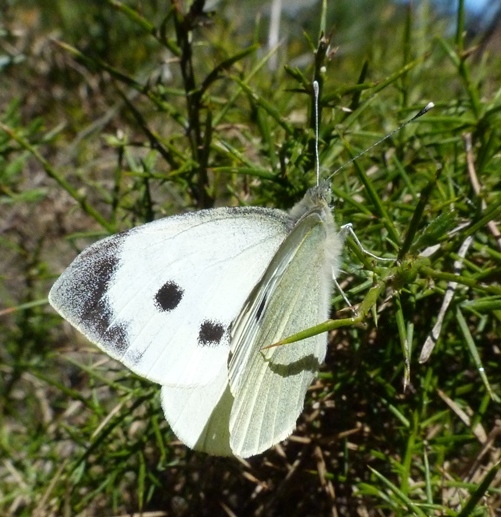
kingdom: Animalia
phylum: Arthropoda
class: Insecta
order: Lepidoptera
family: Pieridae
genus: Pieris
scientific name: Pieris brassicae
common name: Large white
